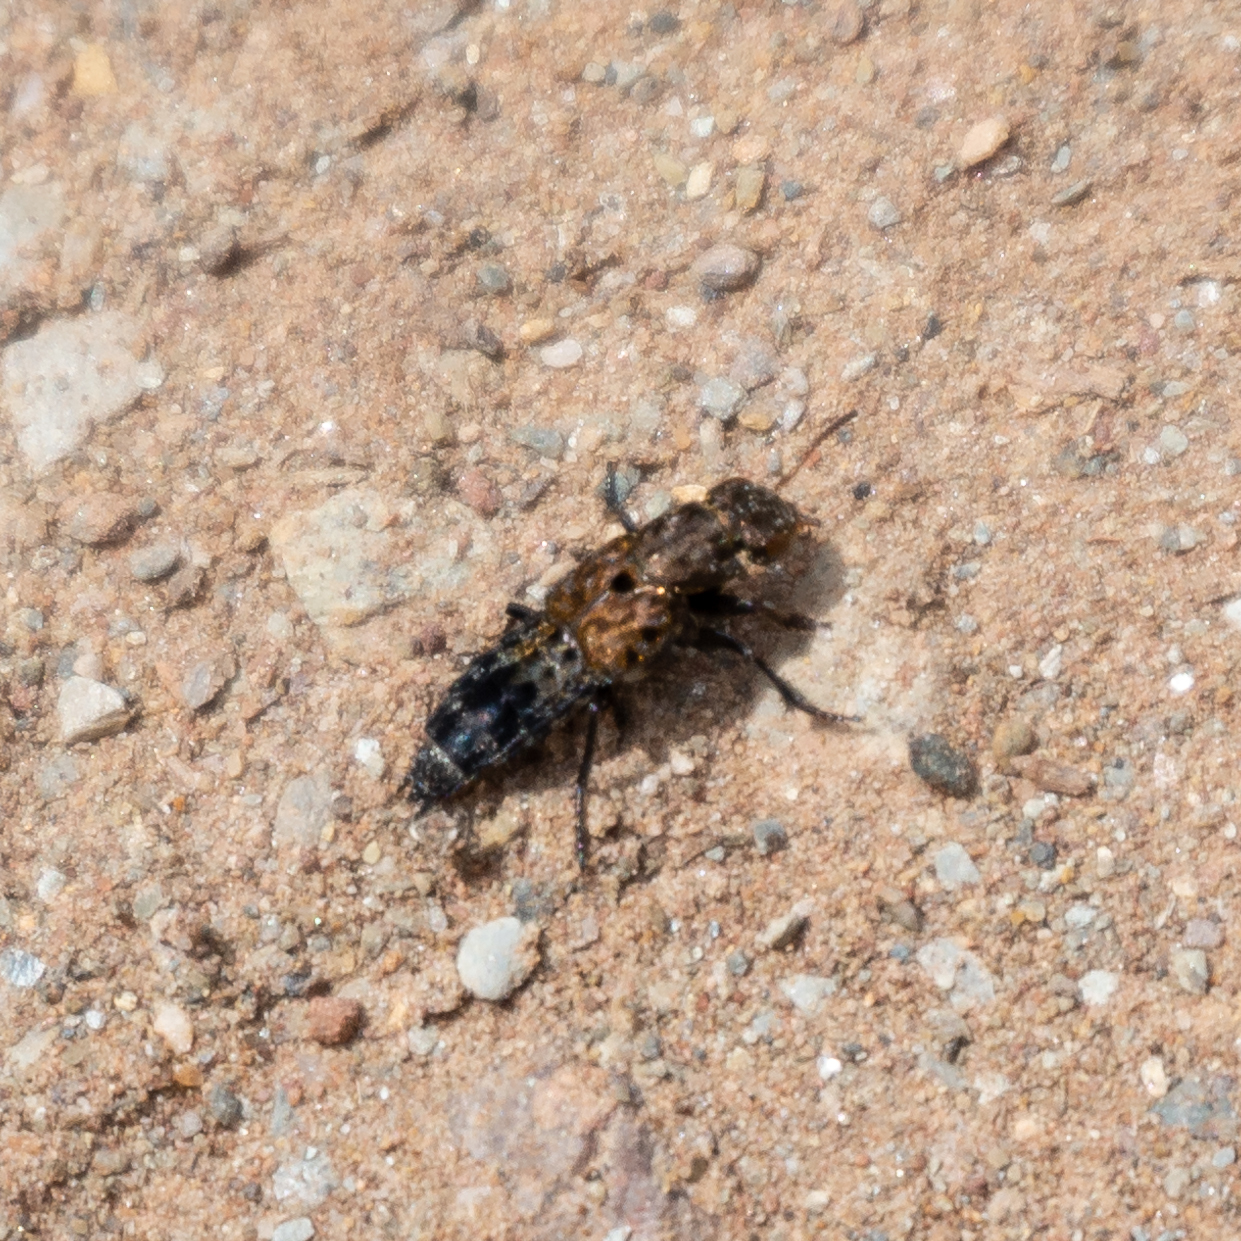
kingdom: Animalia
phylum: Arthropoda
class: Insecta
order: Coleoptera
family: Staphylinidae
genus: Ontholestes
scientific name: Ontholestes murinus
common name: Staph beetle
